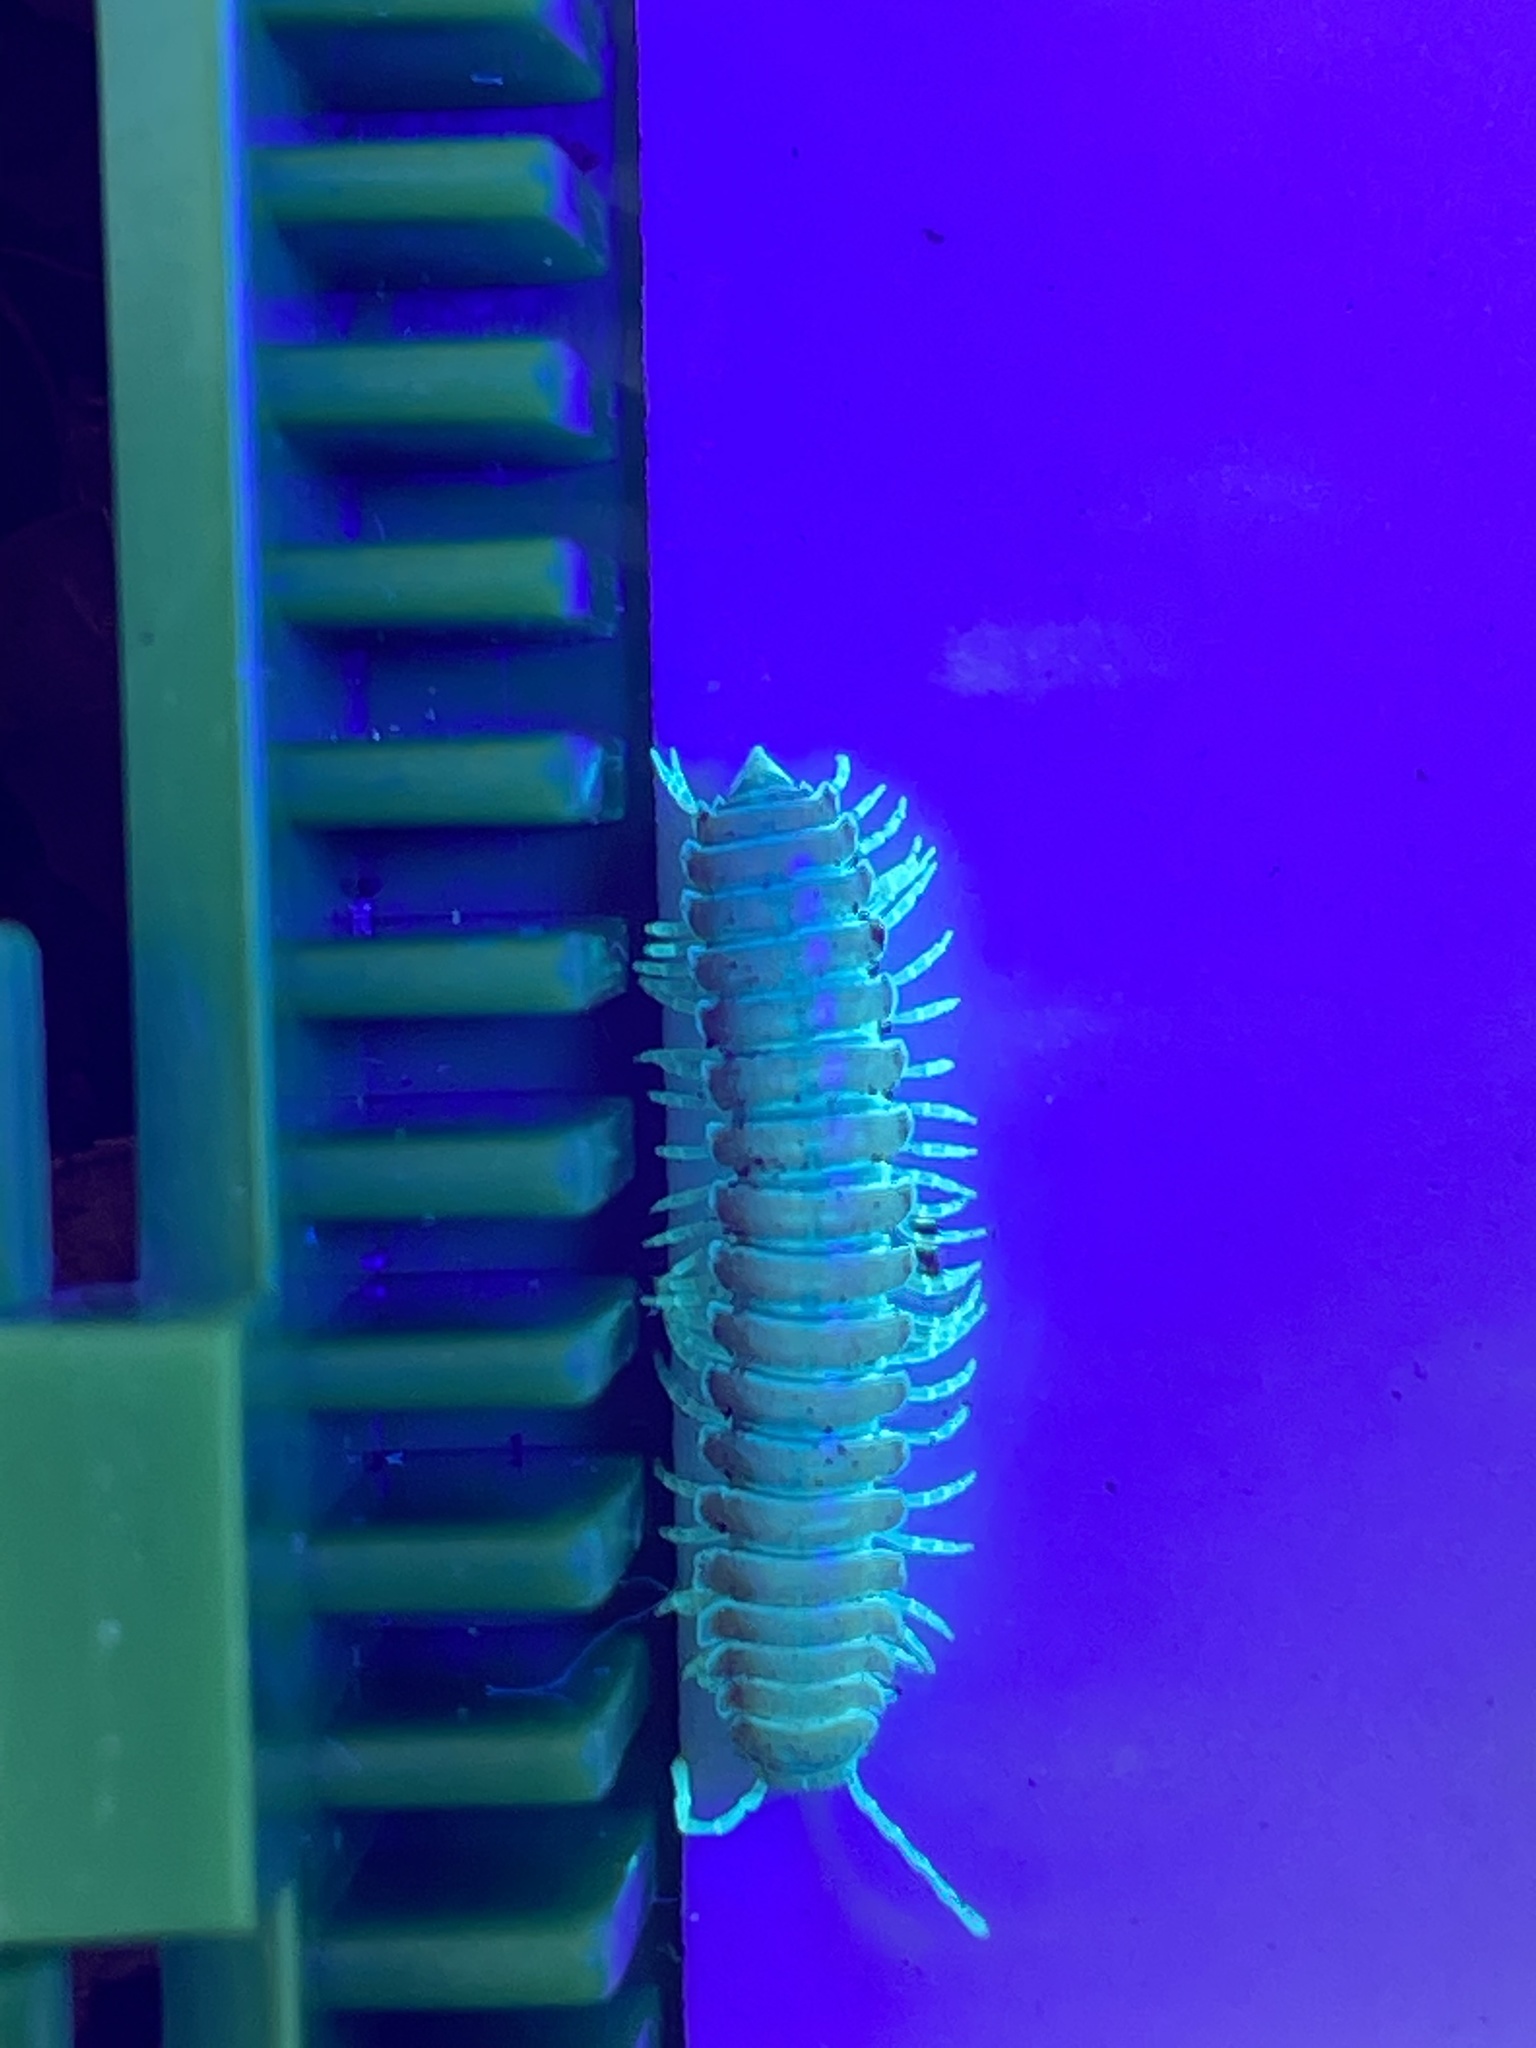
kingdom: Animalia
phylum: Arthropoda
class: Diplopoda
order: Polydesmida
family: Xystodesmidae
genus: Motyxia
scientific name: Motyxia monica
